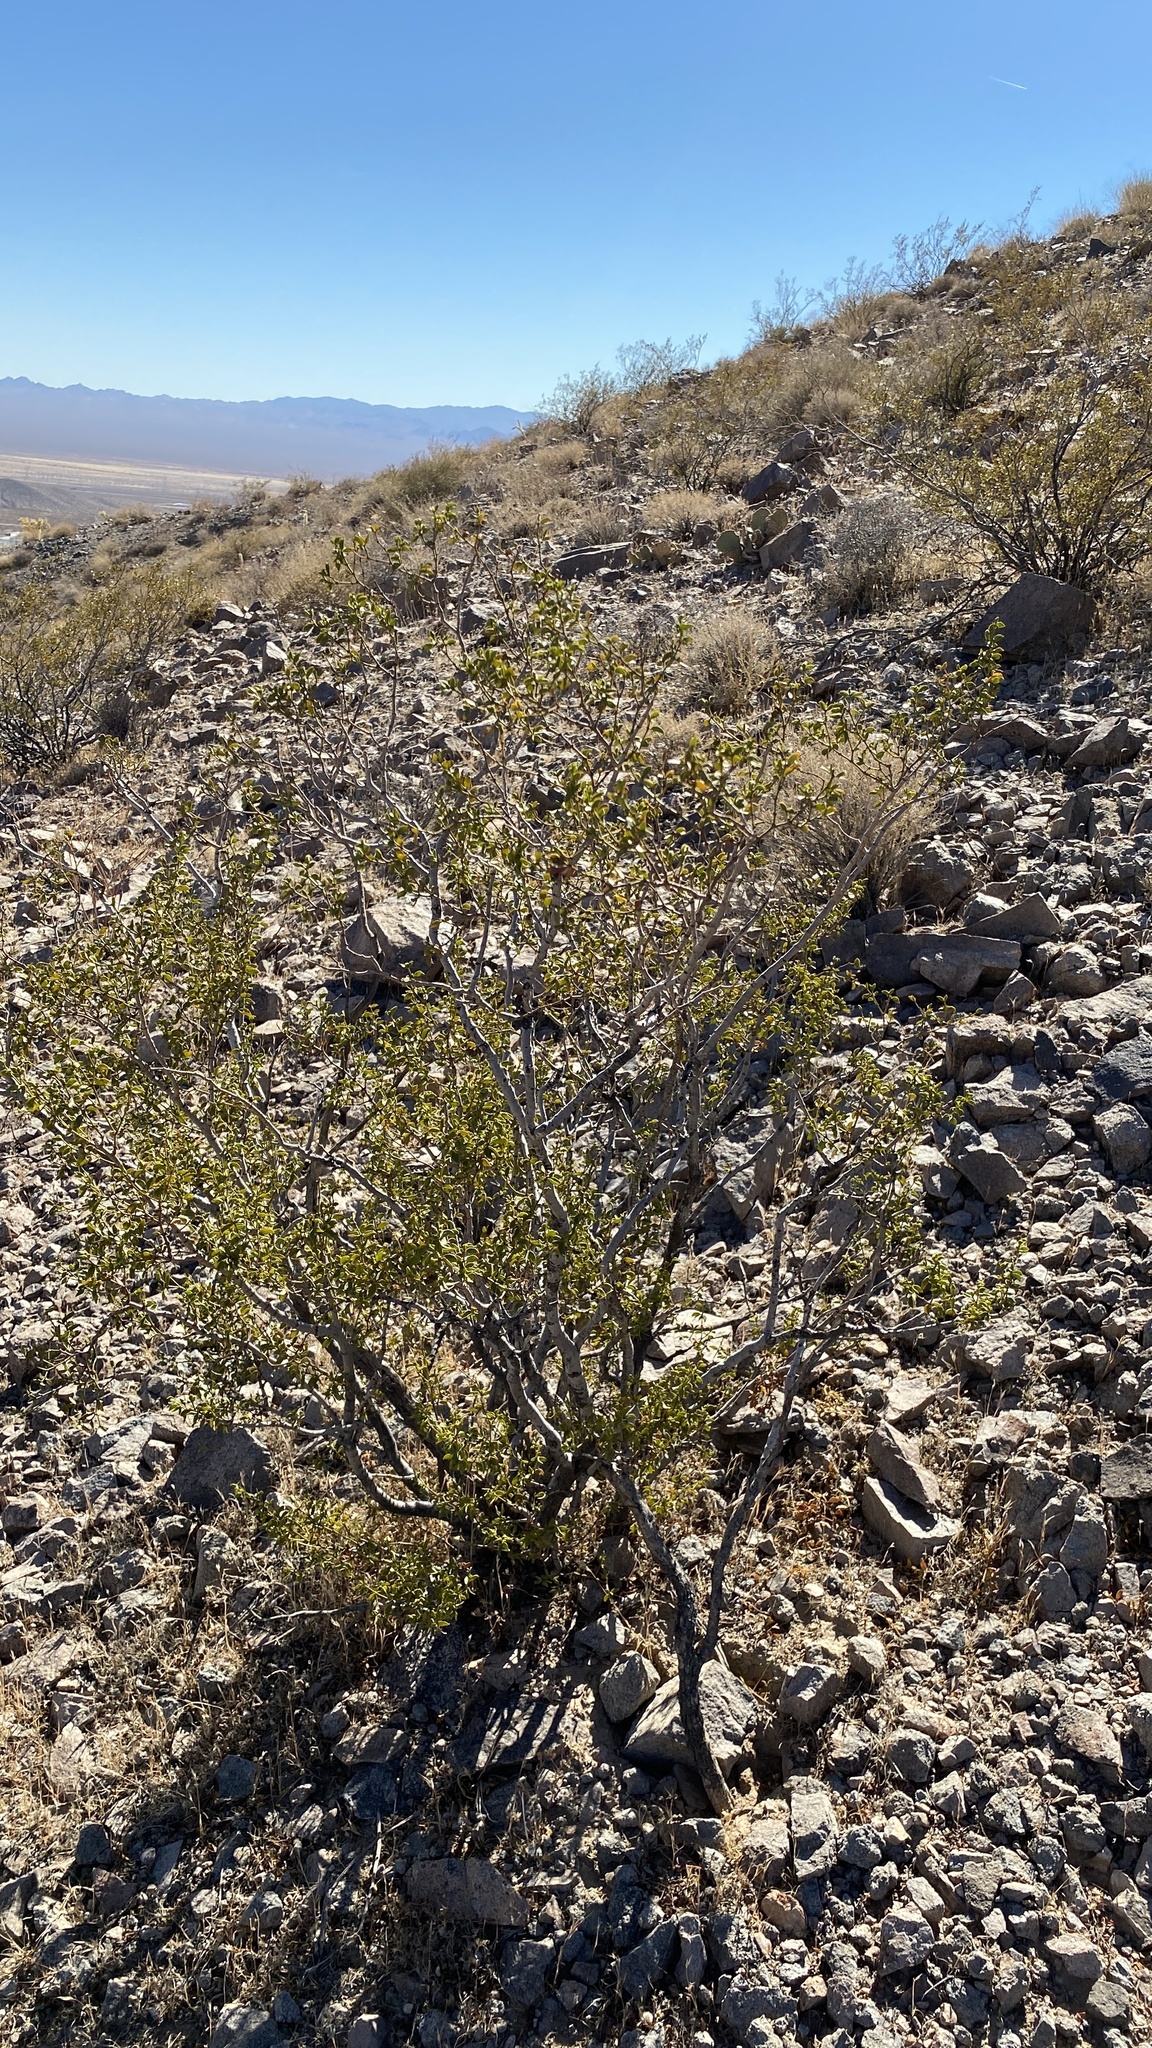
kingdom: Plantae
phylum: Tracheophyta
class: Magnoliopsida
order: Zygophyllales
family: Zygophyllaceae
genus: Larrea
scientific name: Larrea tridentata
